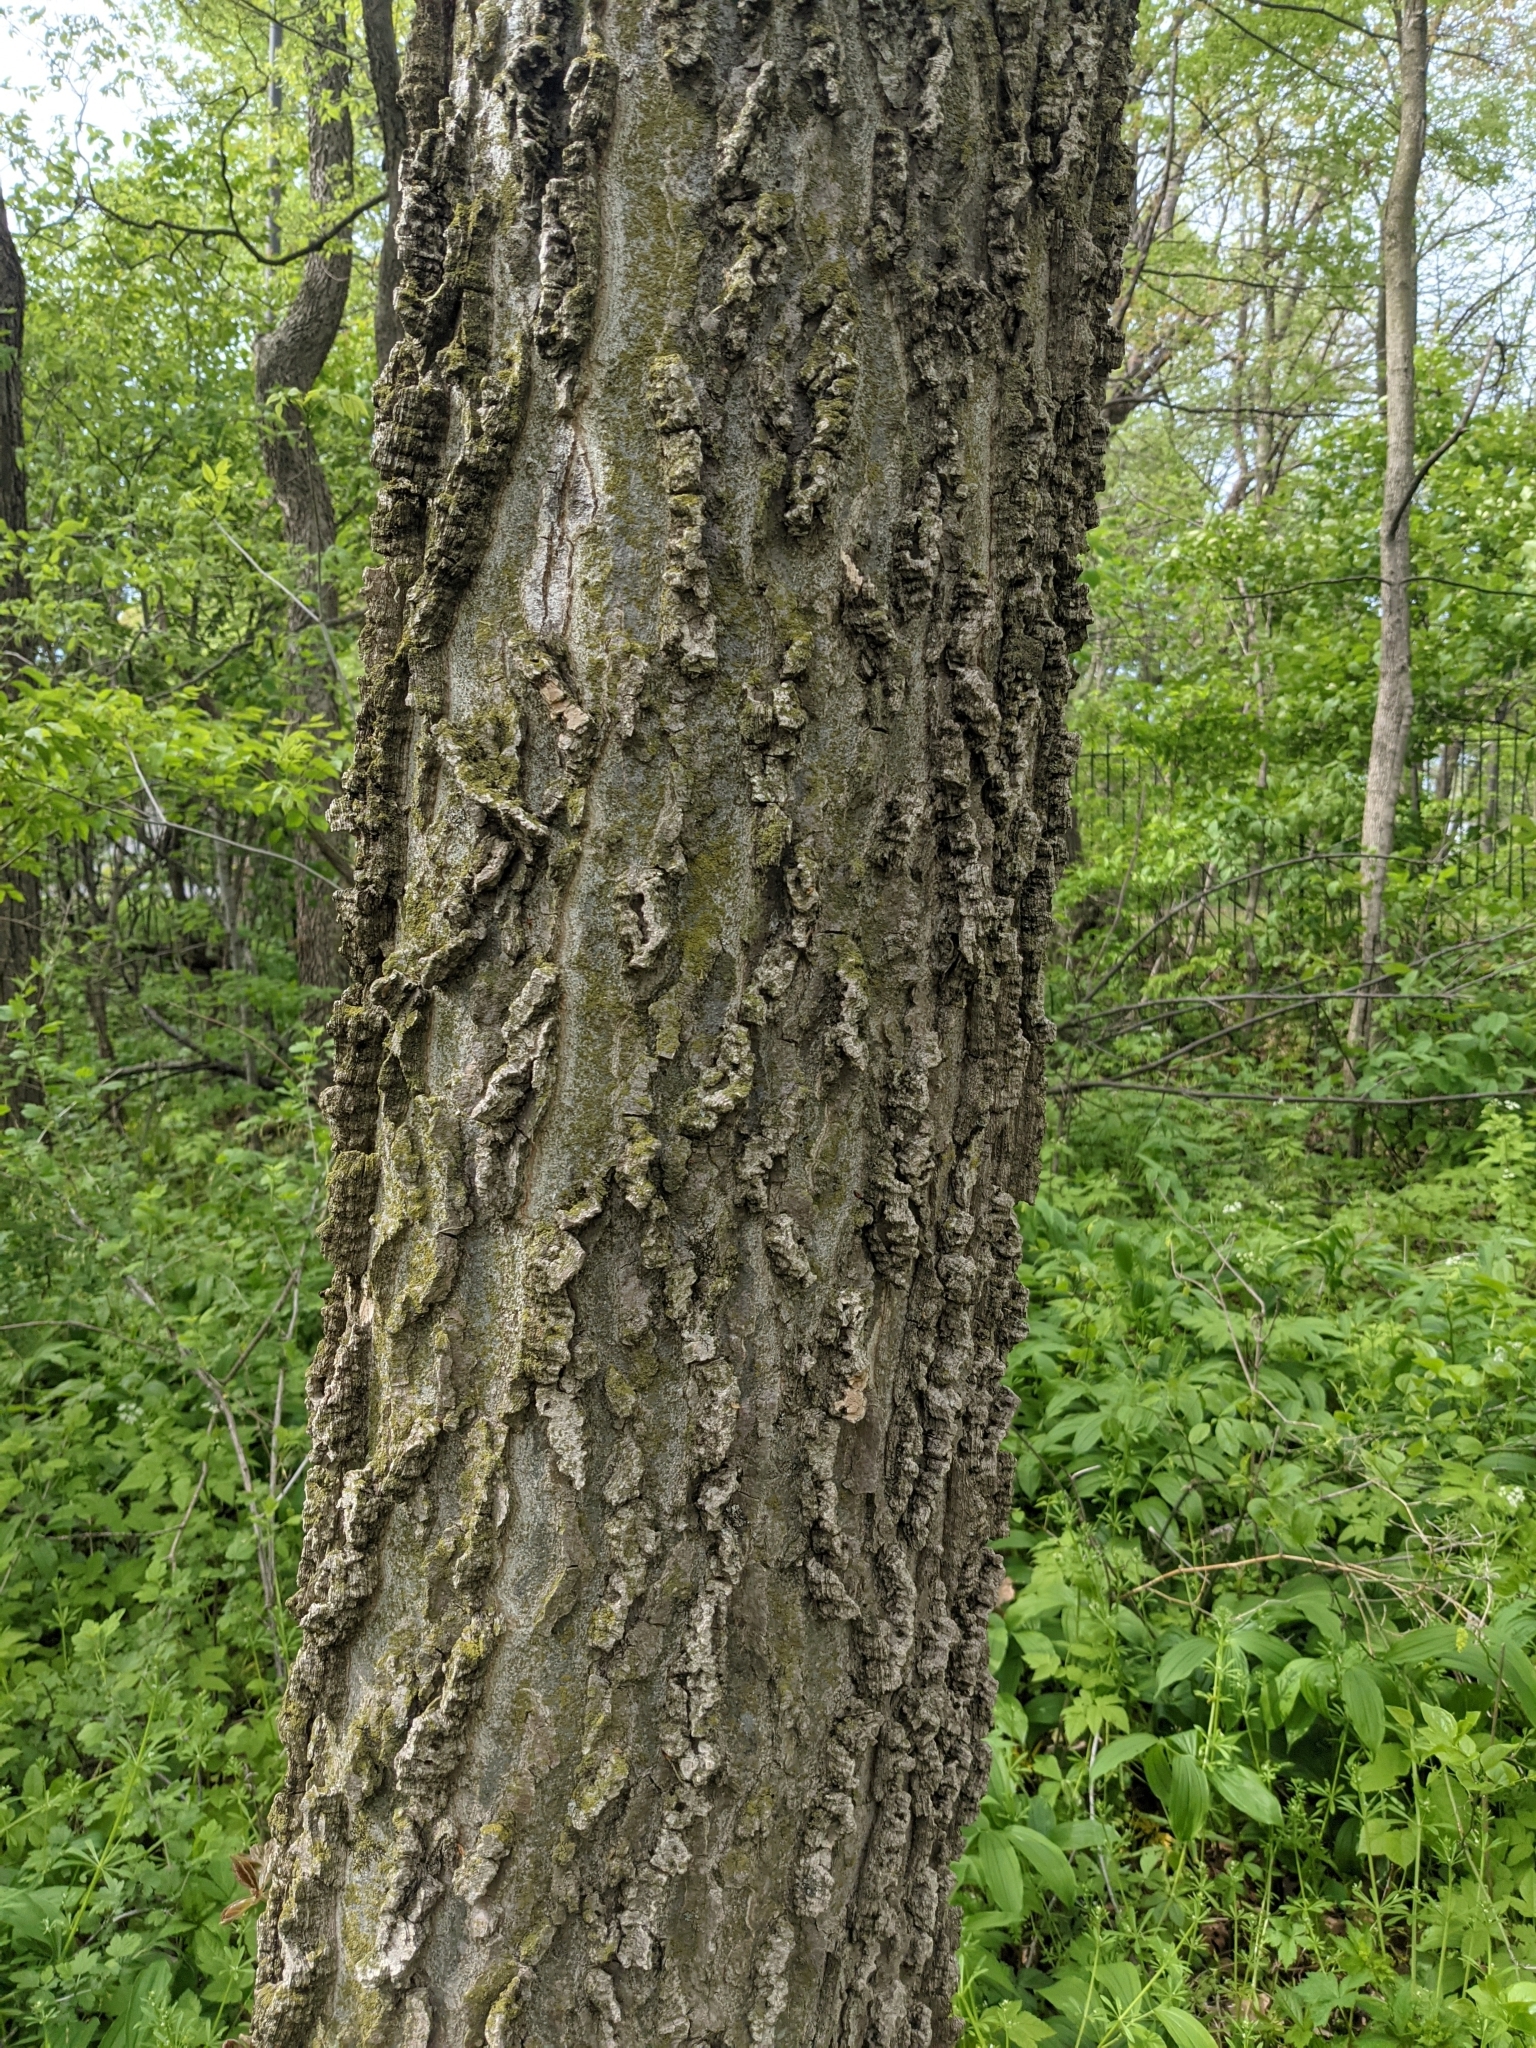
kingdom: Plantae
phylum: Tracheophyta
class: Magnoliopsida
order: Rosales
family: Cannabaceae
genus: Celtis
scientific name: Celtis occidentalis
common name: Common hackberry
